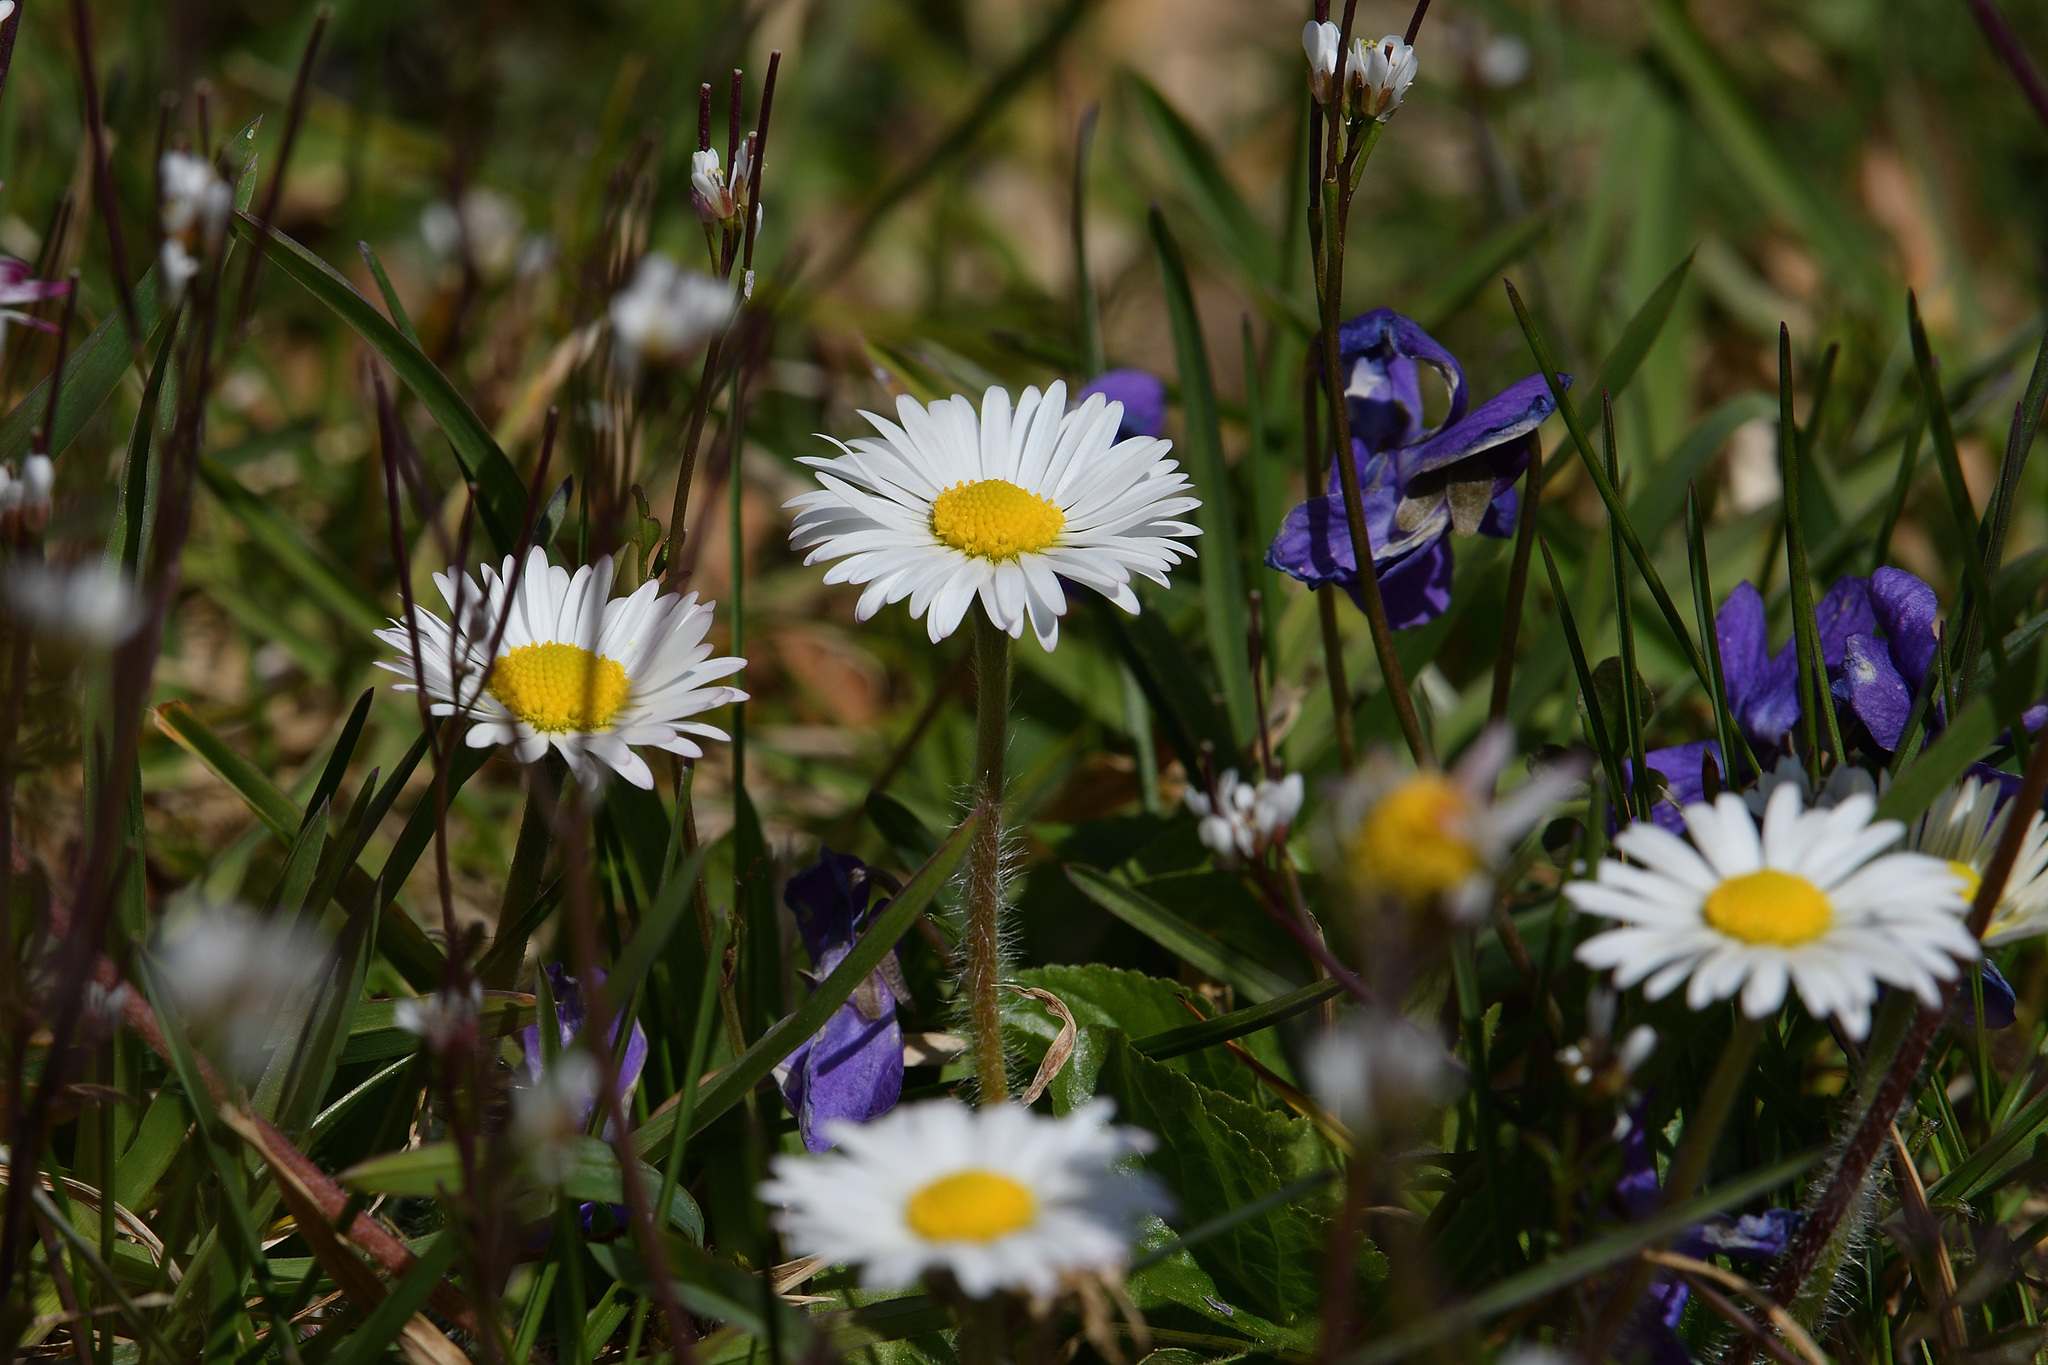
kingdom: Plantae
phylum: Tracheophyta
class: Magnoliopsida
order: Asterales
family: Asteraceae
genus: Bellis
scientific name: Bellis perennis
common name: Lawndaisy
